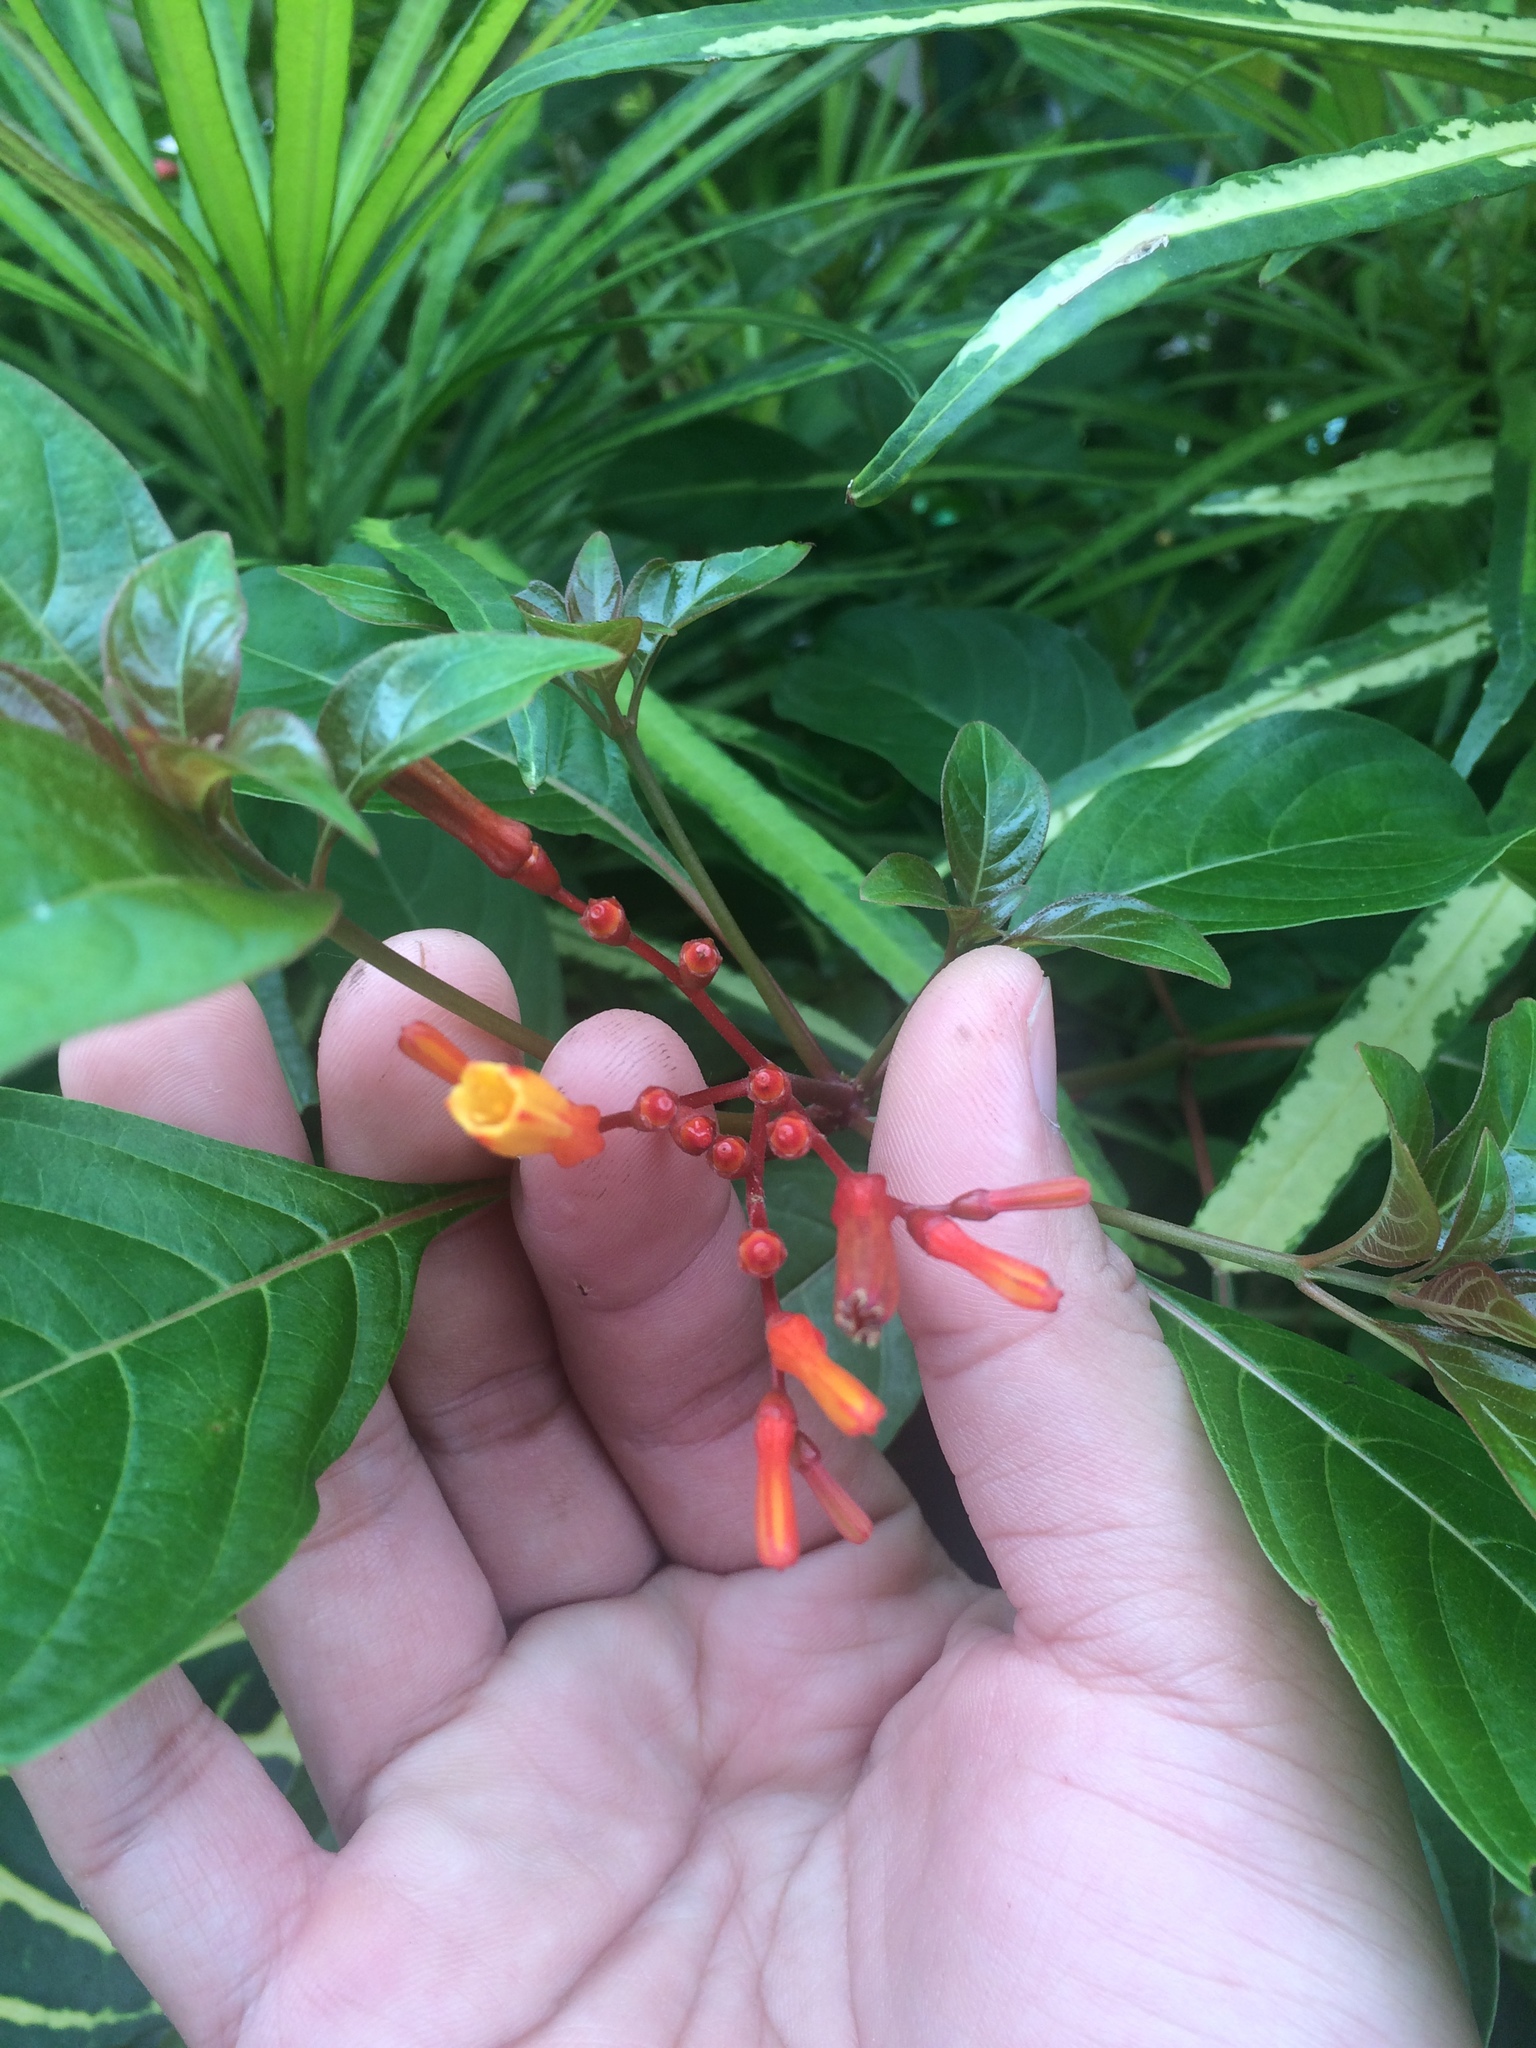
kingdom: Plantae
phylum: Tracheophyta
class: Magnoliopsida
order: Gentianales
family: Rubiaceae
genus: Hamelia
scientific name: Hamelia patens
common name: Redhead
